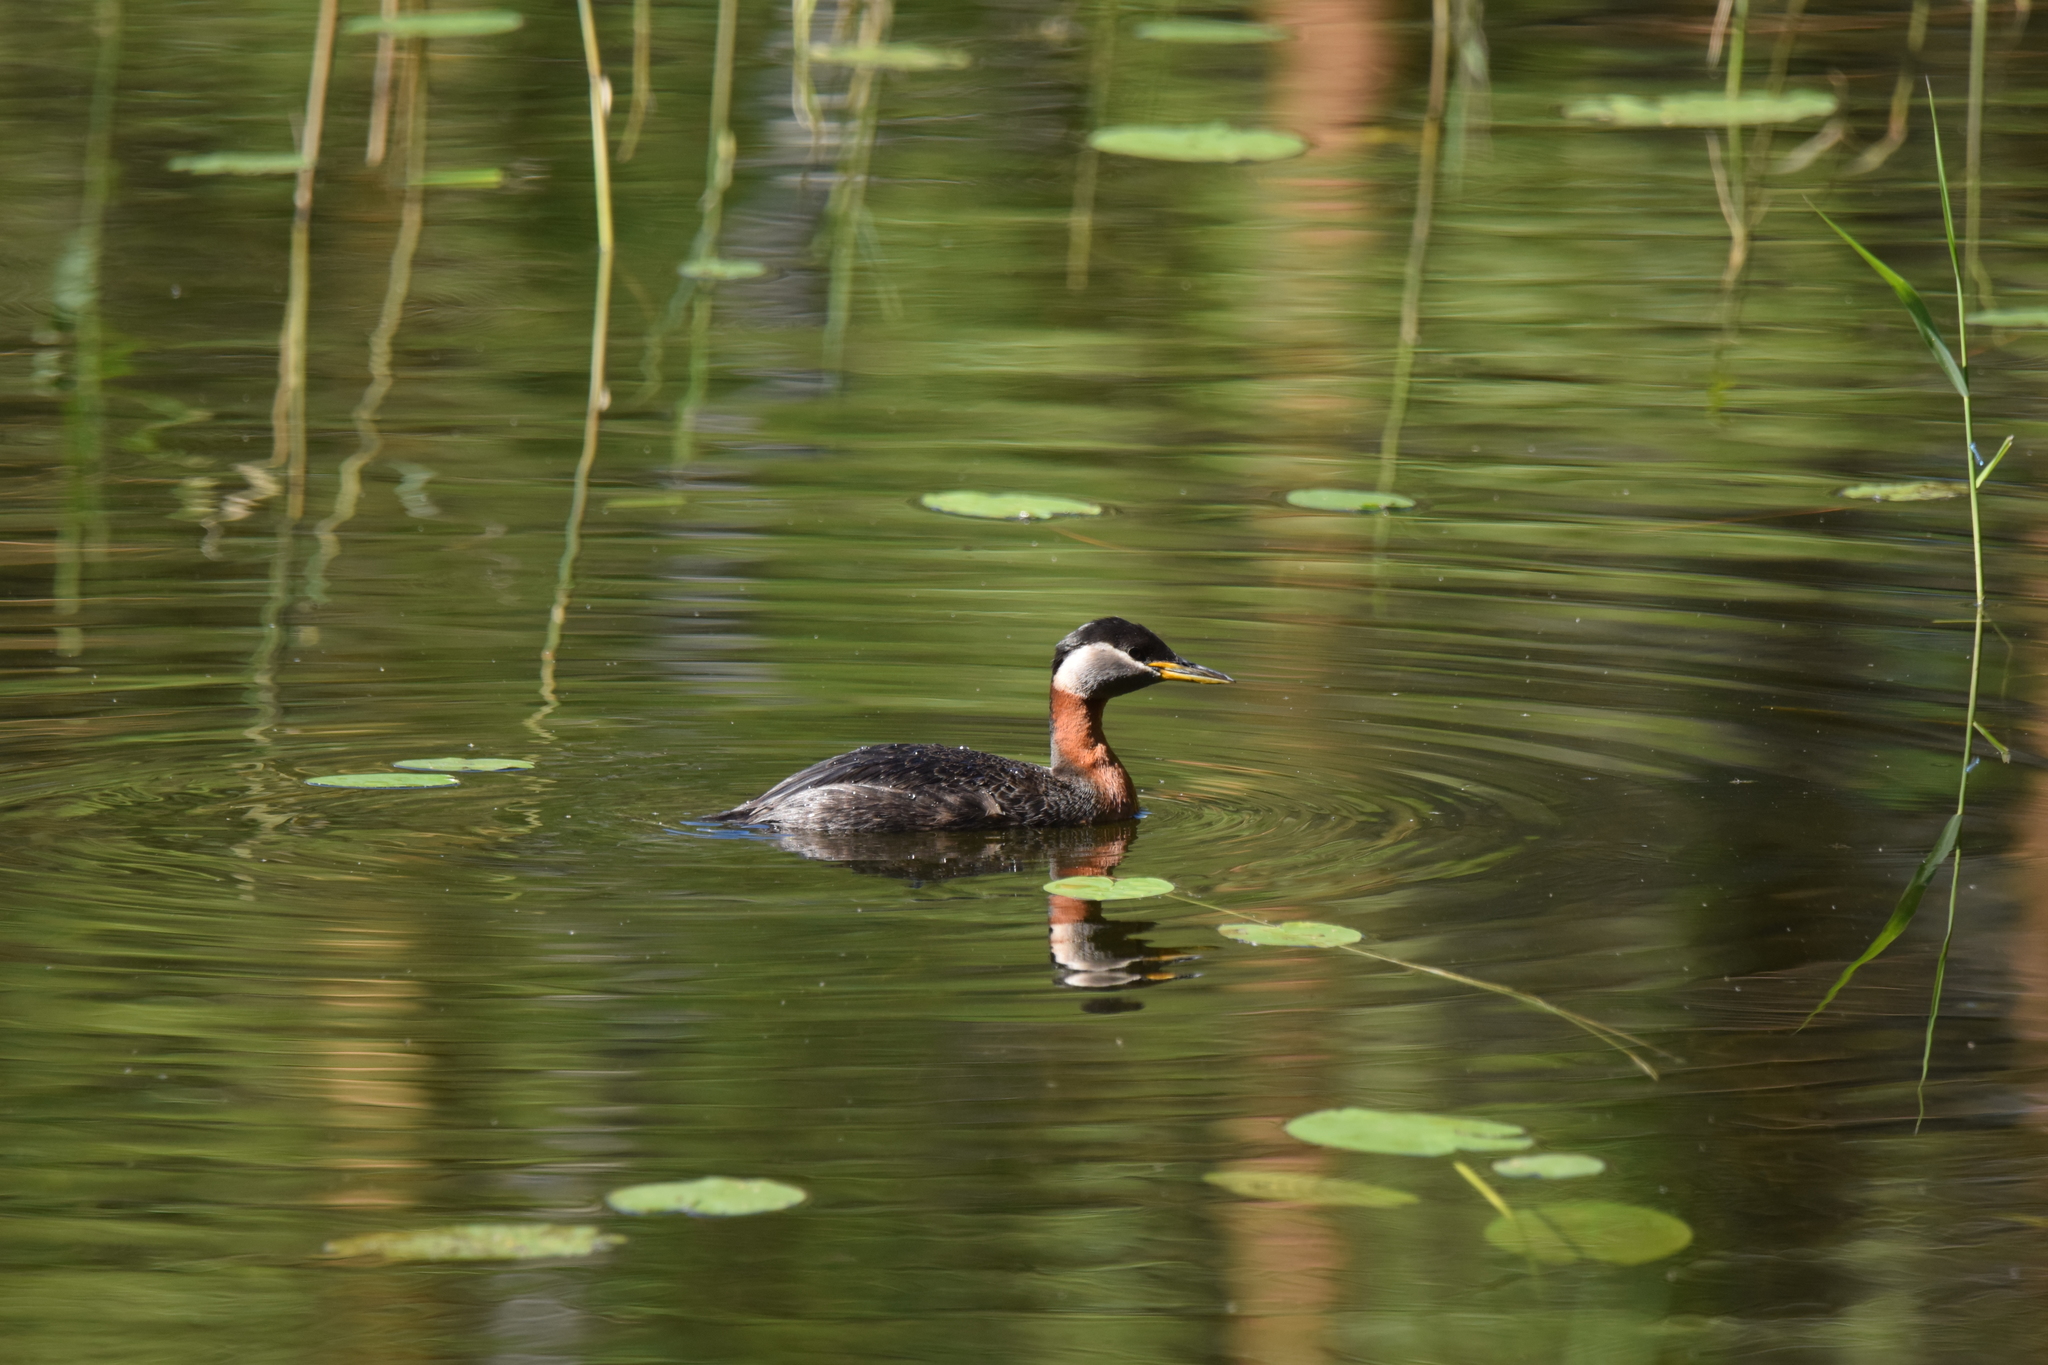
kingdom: Animalia
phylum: Chordata
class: Aves
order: Podicipediformes
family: Podicipedidae
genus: Podiceps
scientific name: Podiceps grisegena
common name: Red-necked grebe
